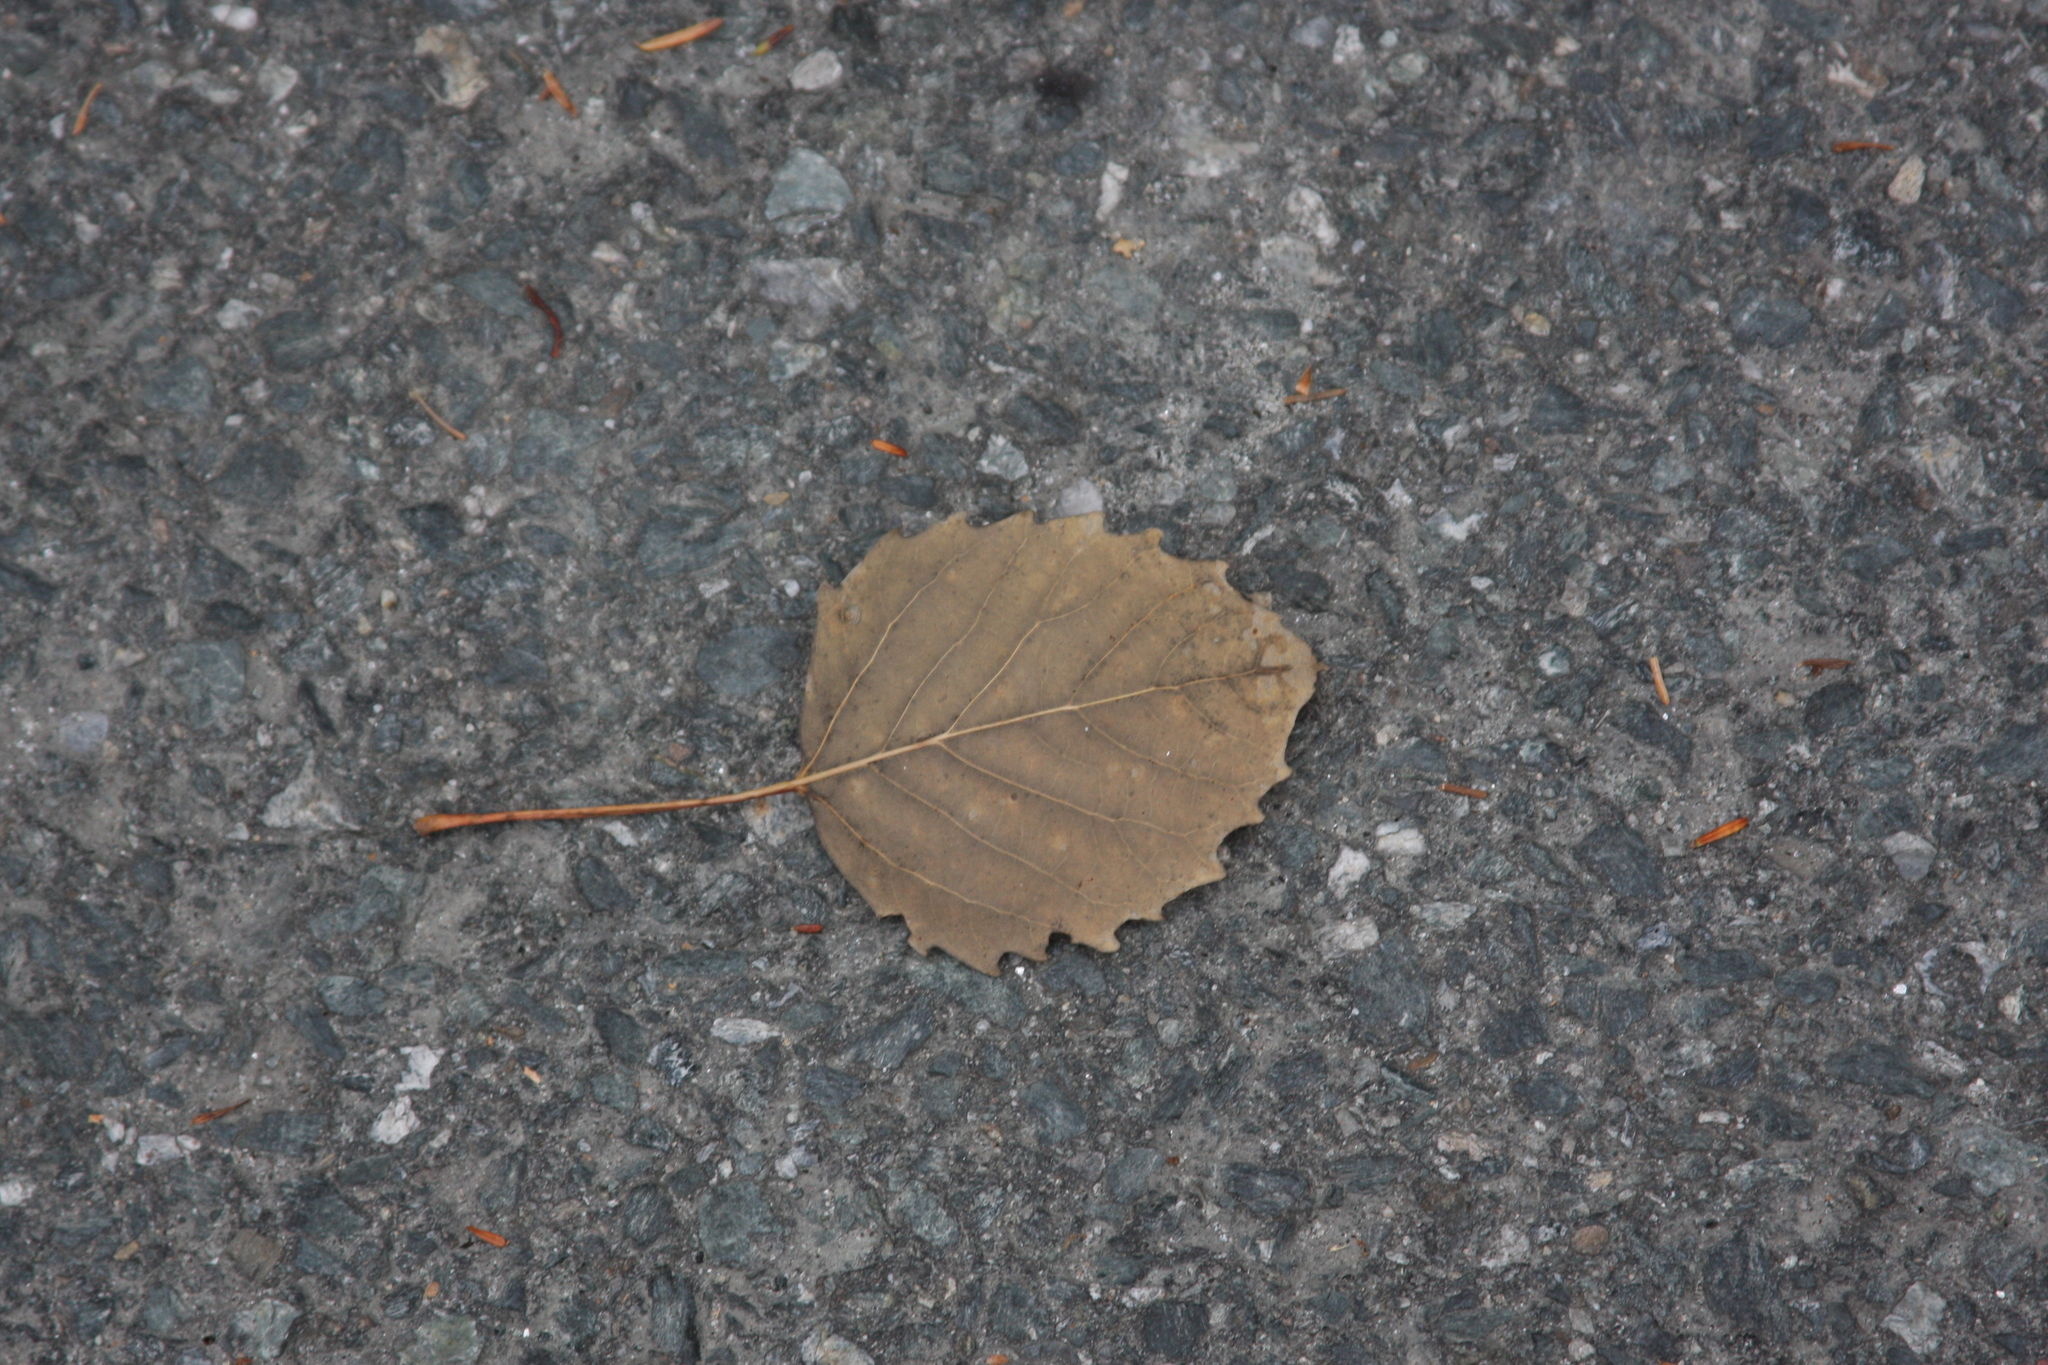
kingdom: Plantae
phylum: Tracheophyta
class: Magnoliopsida
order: Malpighiales
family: Salicaceae
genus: Populus
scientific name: Populus grandidentata
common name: Bigtooth aspen
